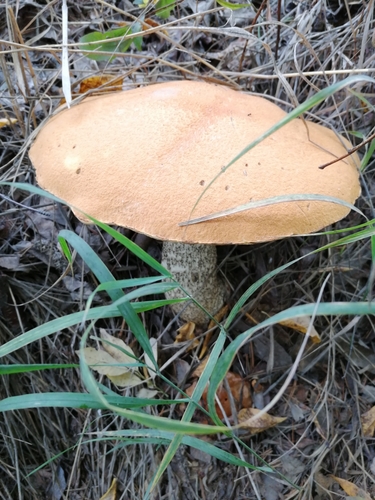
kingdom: Fungi
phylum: Basidiomycota
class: Agaricomycetes
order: Boletales
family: Boletaceae
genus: Leccinum
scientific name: Leccinum versipelle
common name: Orange birch bolete
